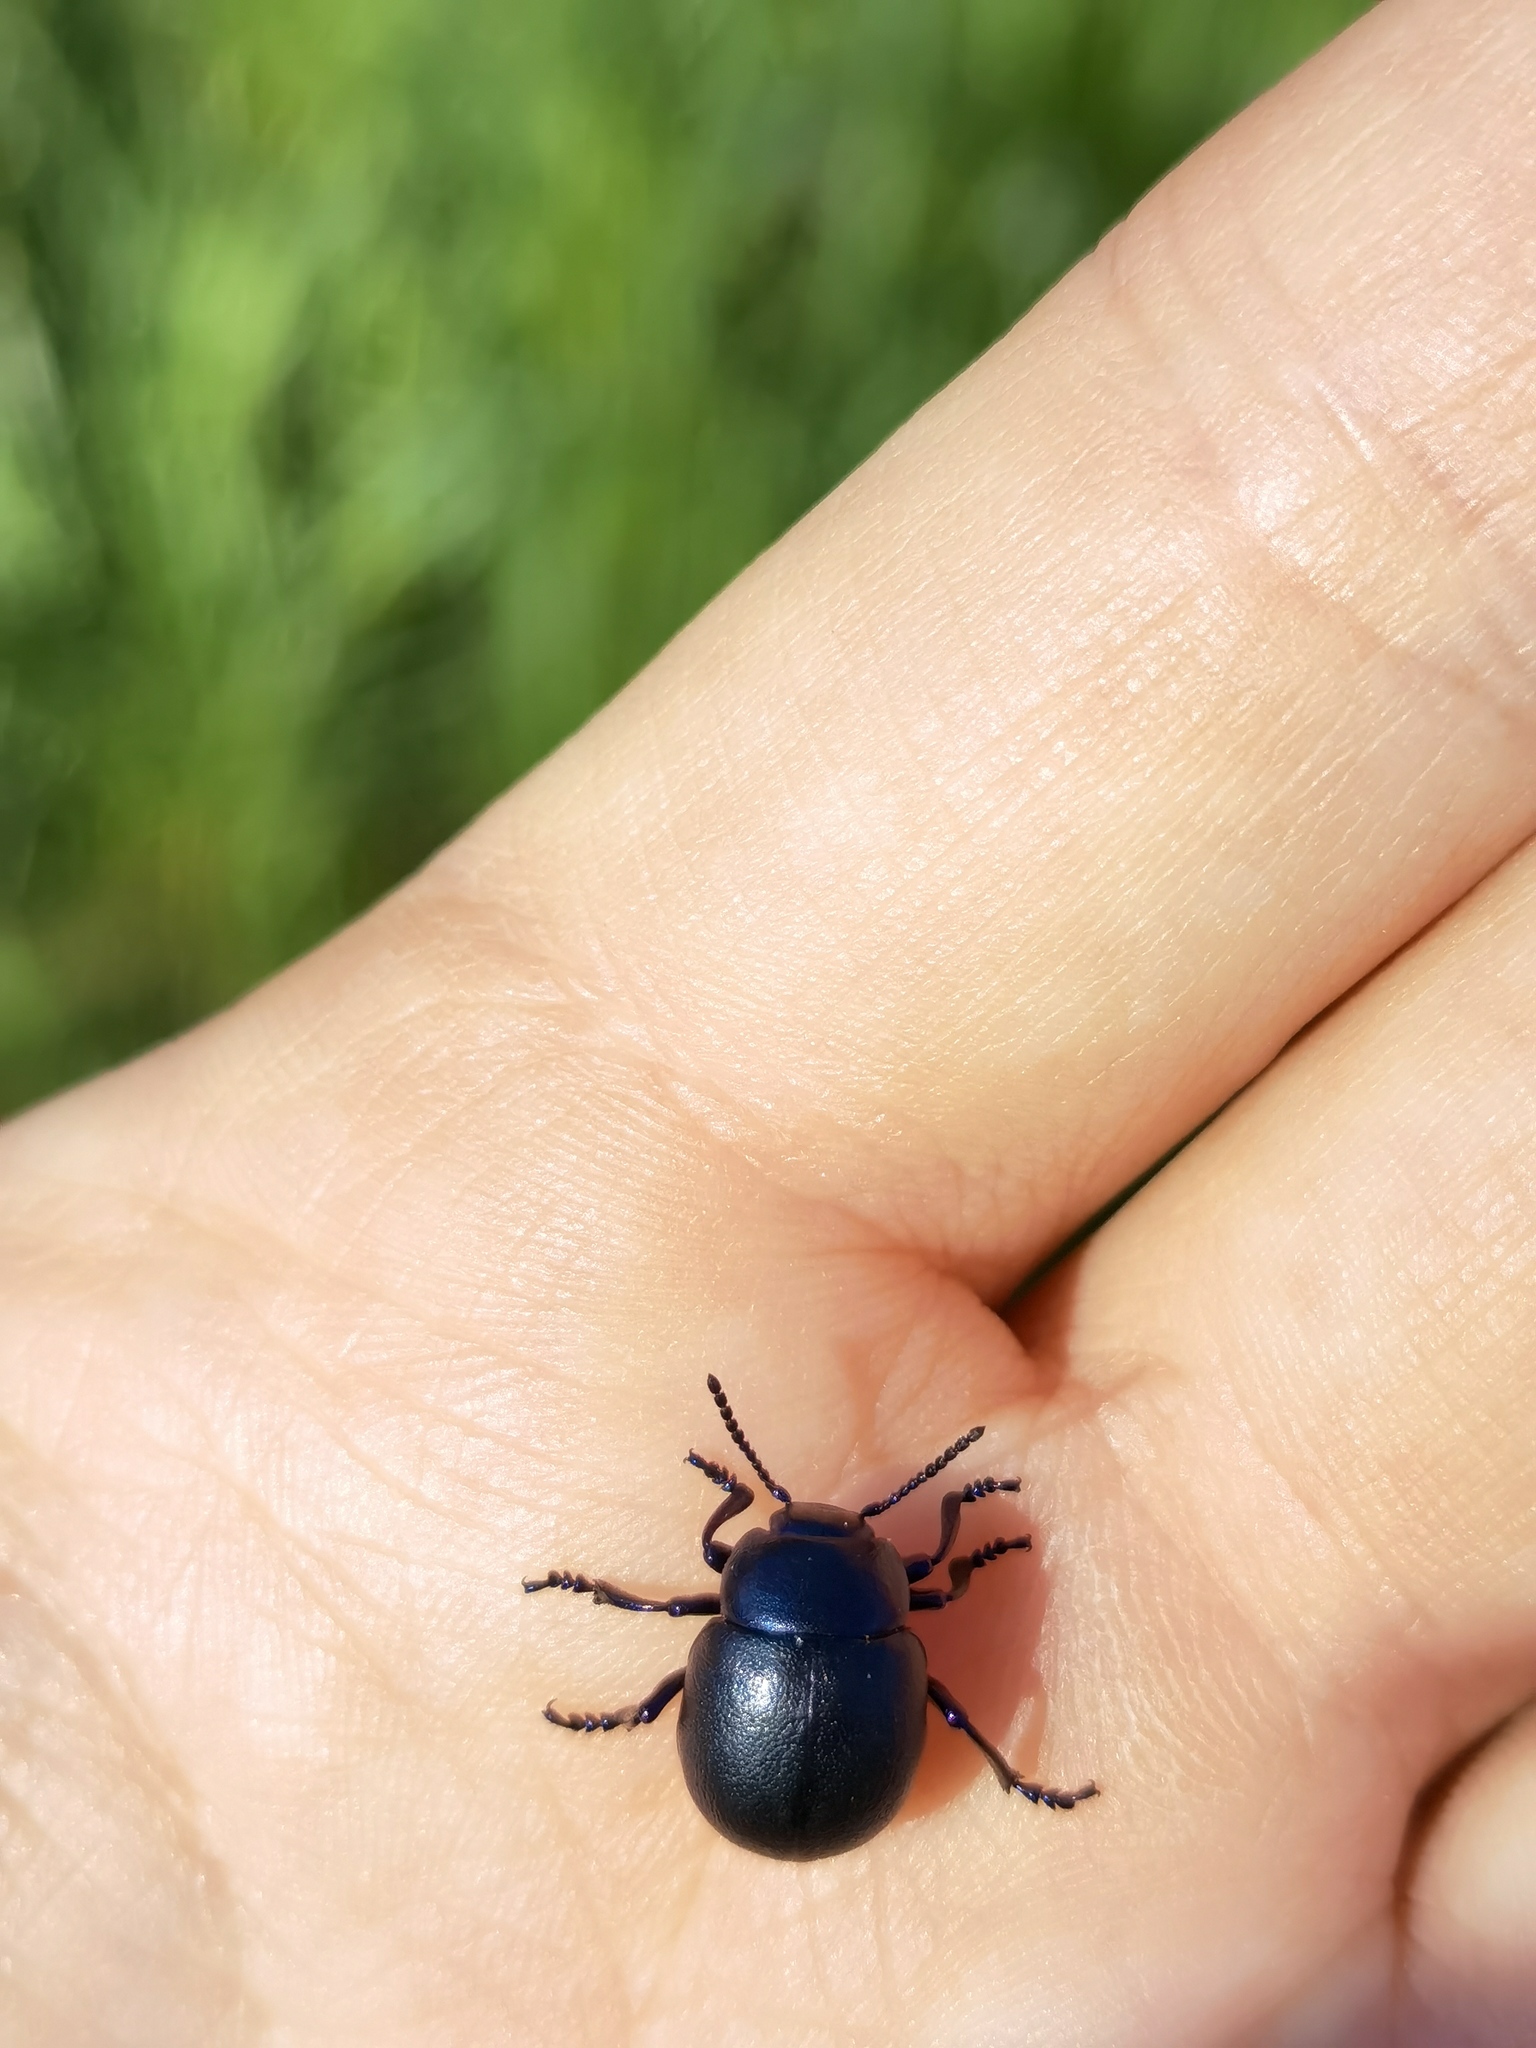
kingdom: Animalia
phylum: Arthropoda
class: Insecta
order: Coleoptera
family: Chrysomelidae
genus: Timarcha
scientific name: Timarcha goettingensis
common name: Small bloody-nosed beetle
